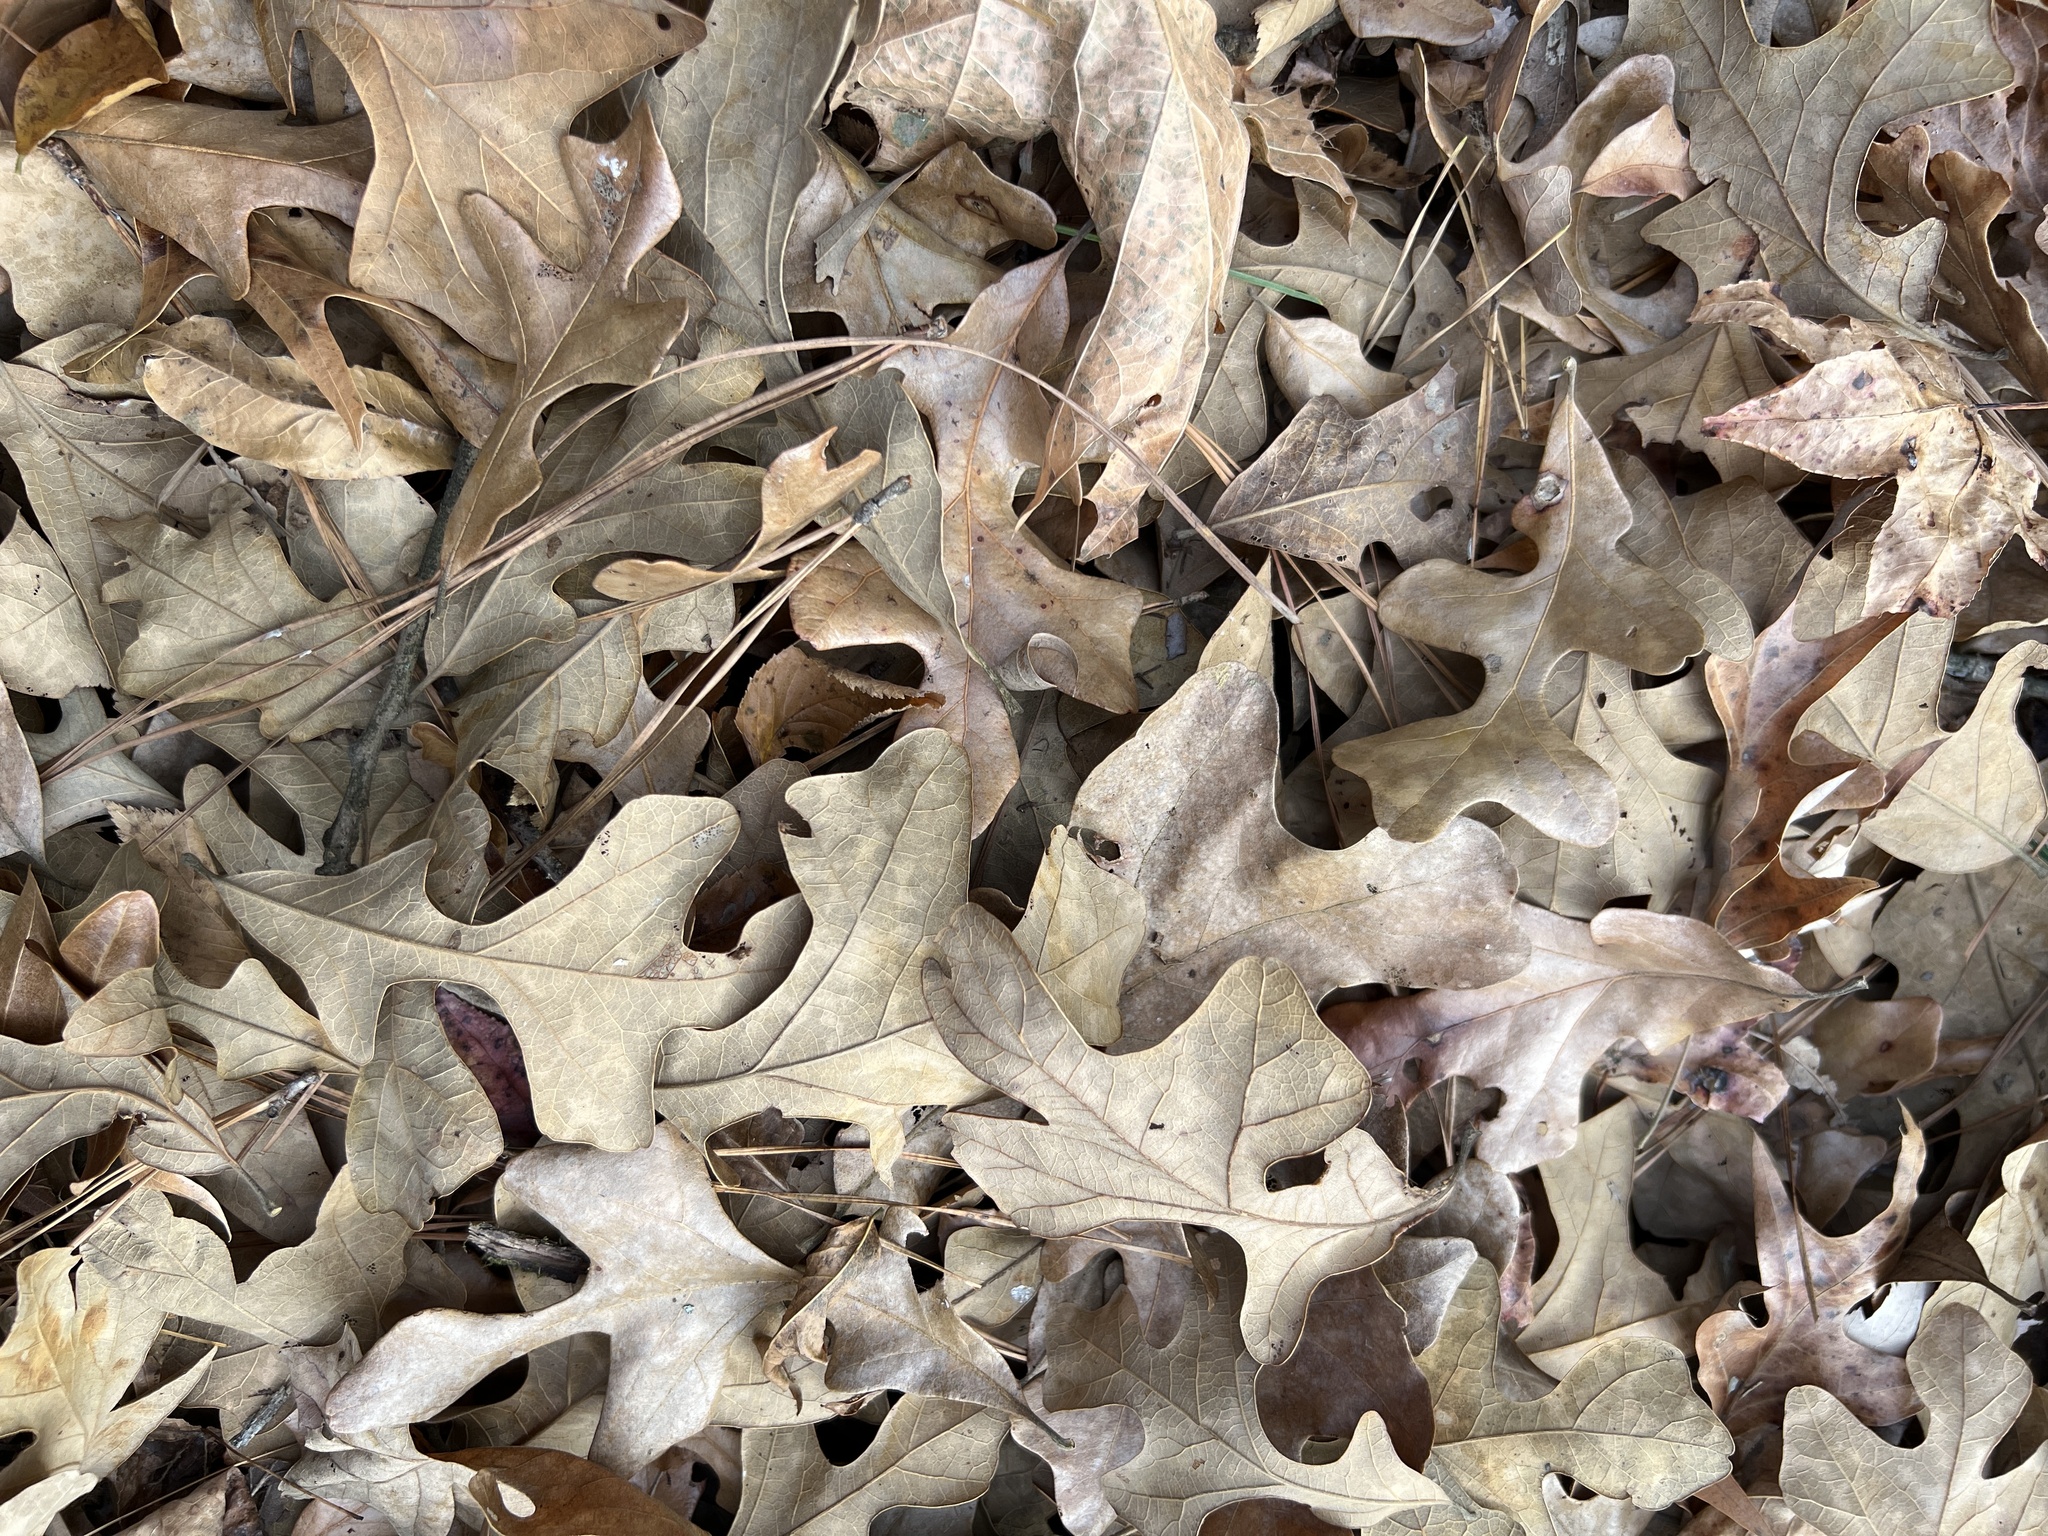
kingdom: Plantae
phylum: Tracheophyta
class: Magnoliopsida
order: Fagales
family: Fagaceae
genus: Quercus
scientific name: Quercus stellata
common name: Post oak
